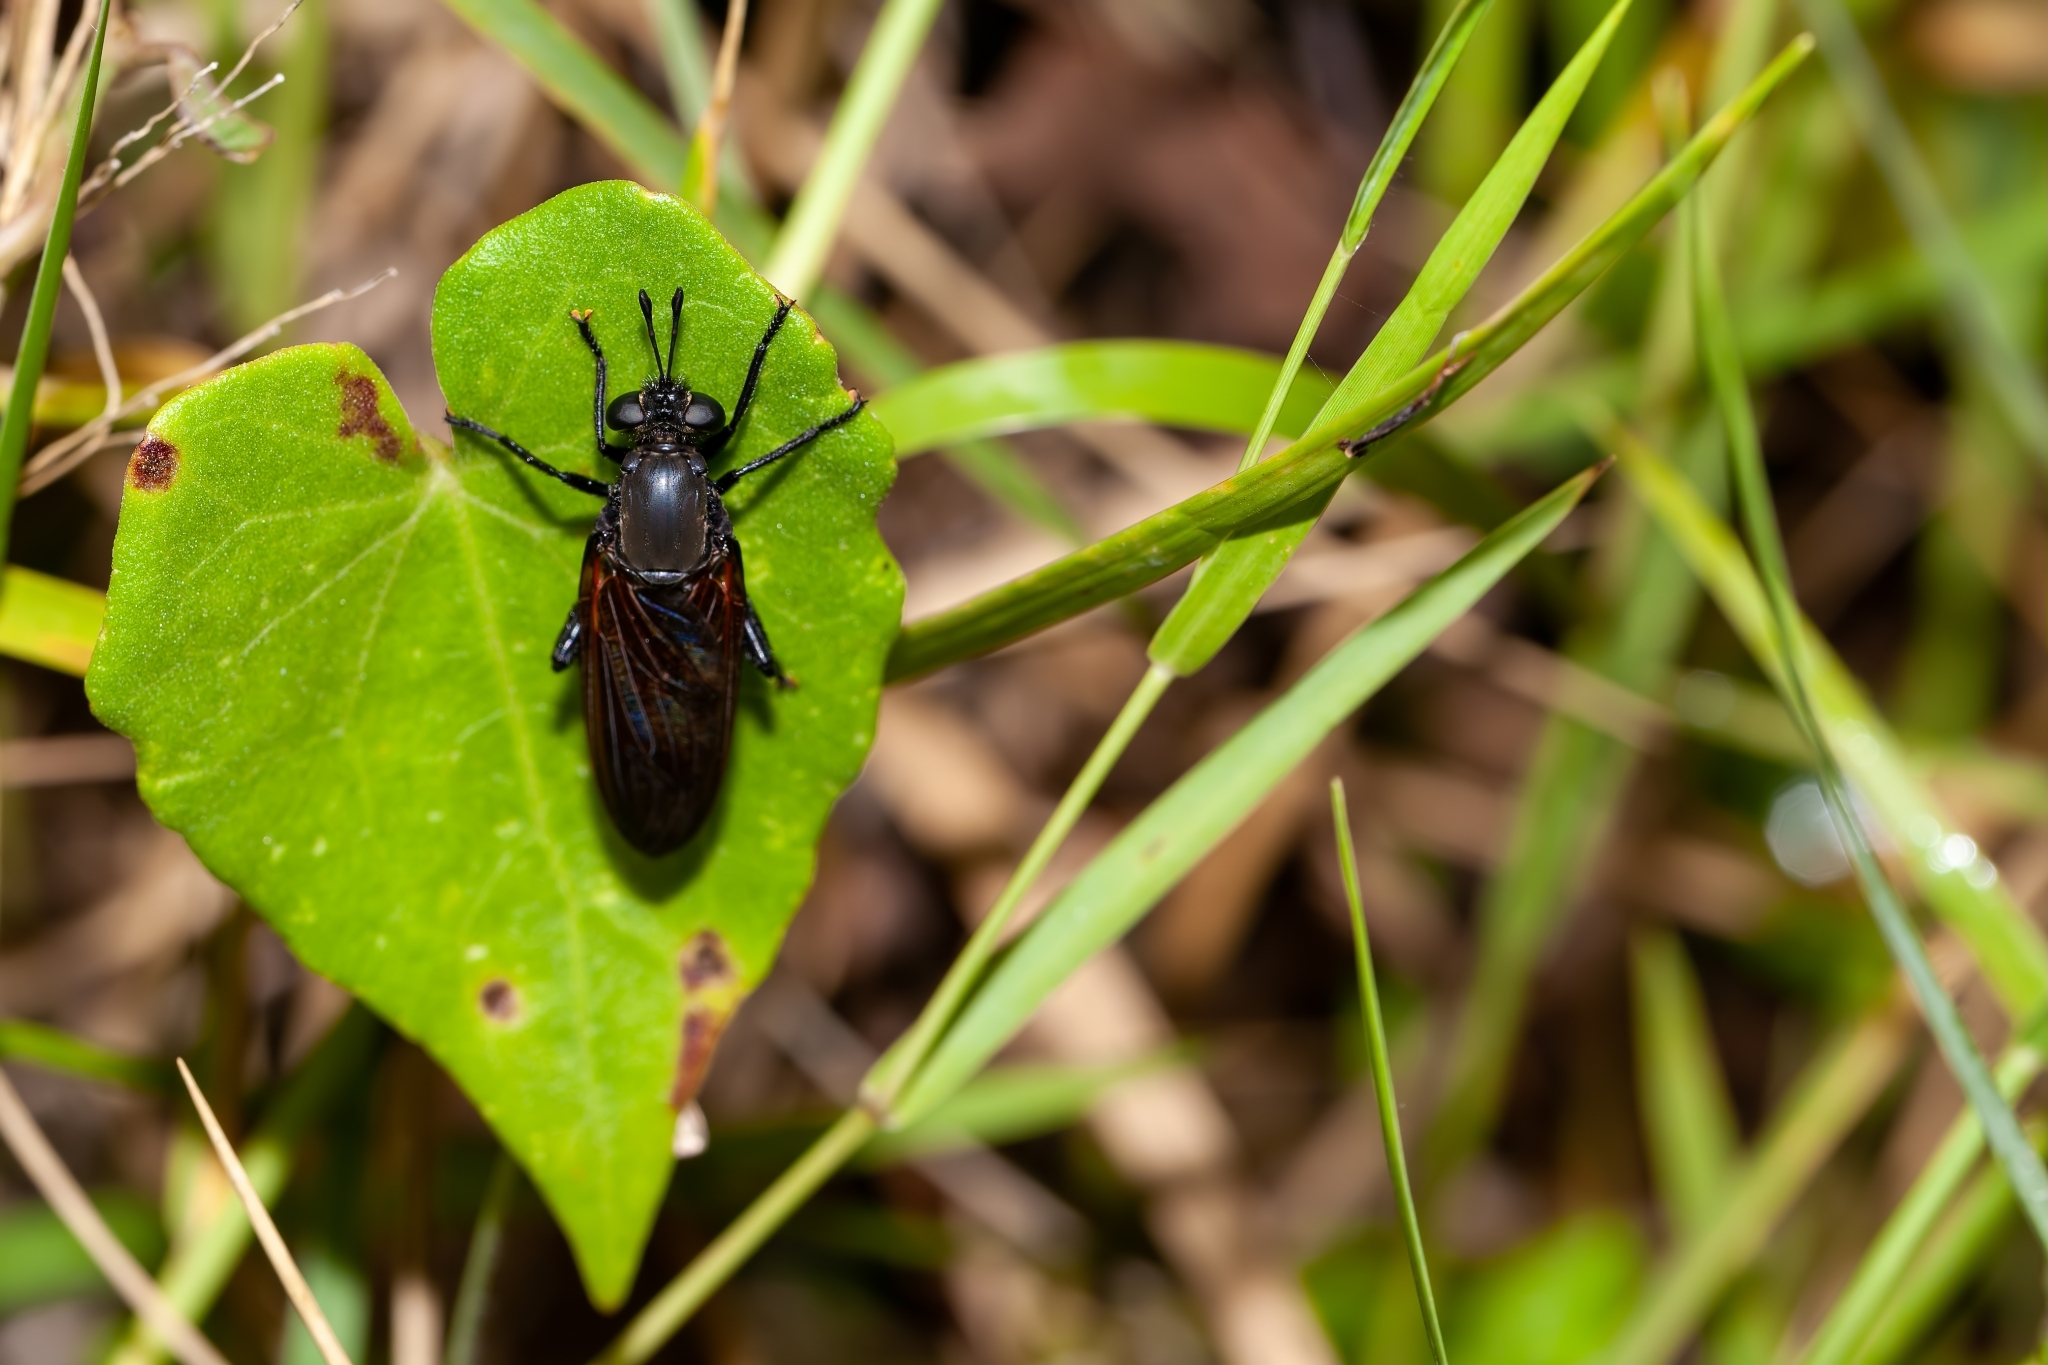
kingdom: Animalia
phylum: Arthropoda
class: Insecta
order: Diptera
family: Mydidae
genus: Mydas
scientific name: Mydas maculiventris
